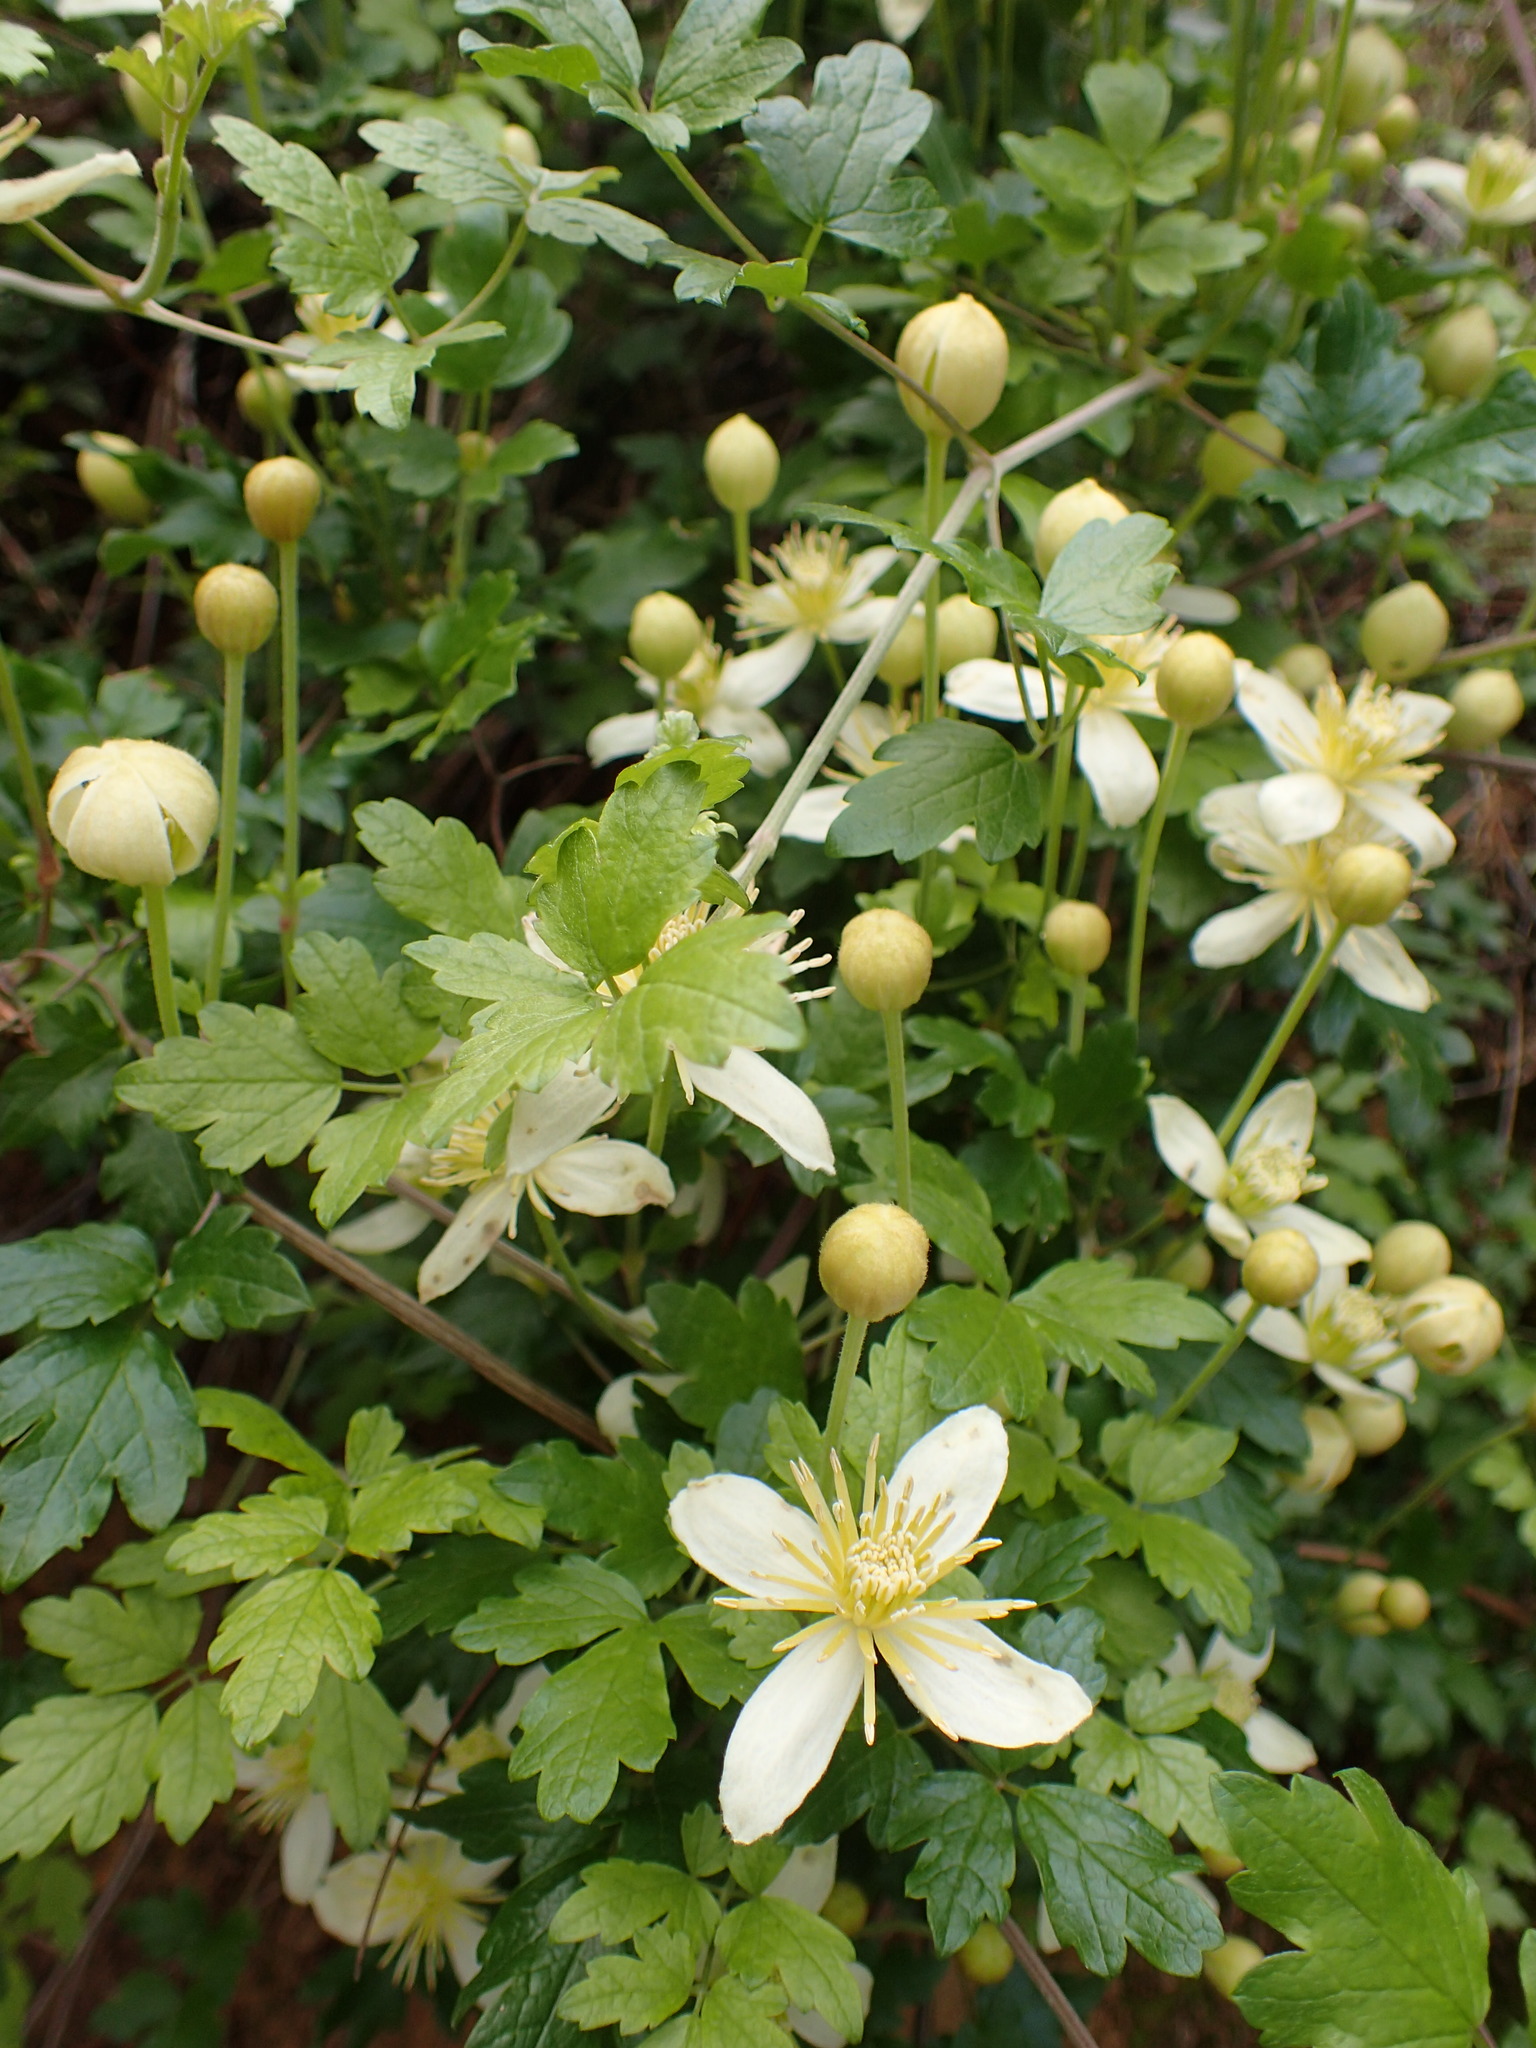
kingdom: Plantae
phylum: Tracheophyta
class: Magnoliopsida
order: Ranunculales
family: Ranunculaceae
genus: Clematis
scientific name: Clematis lasiantha
